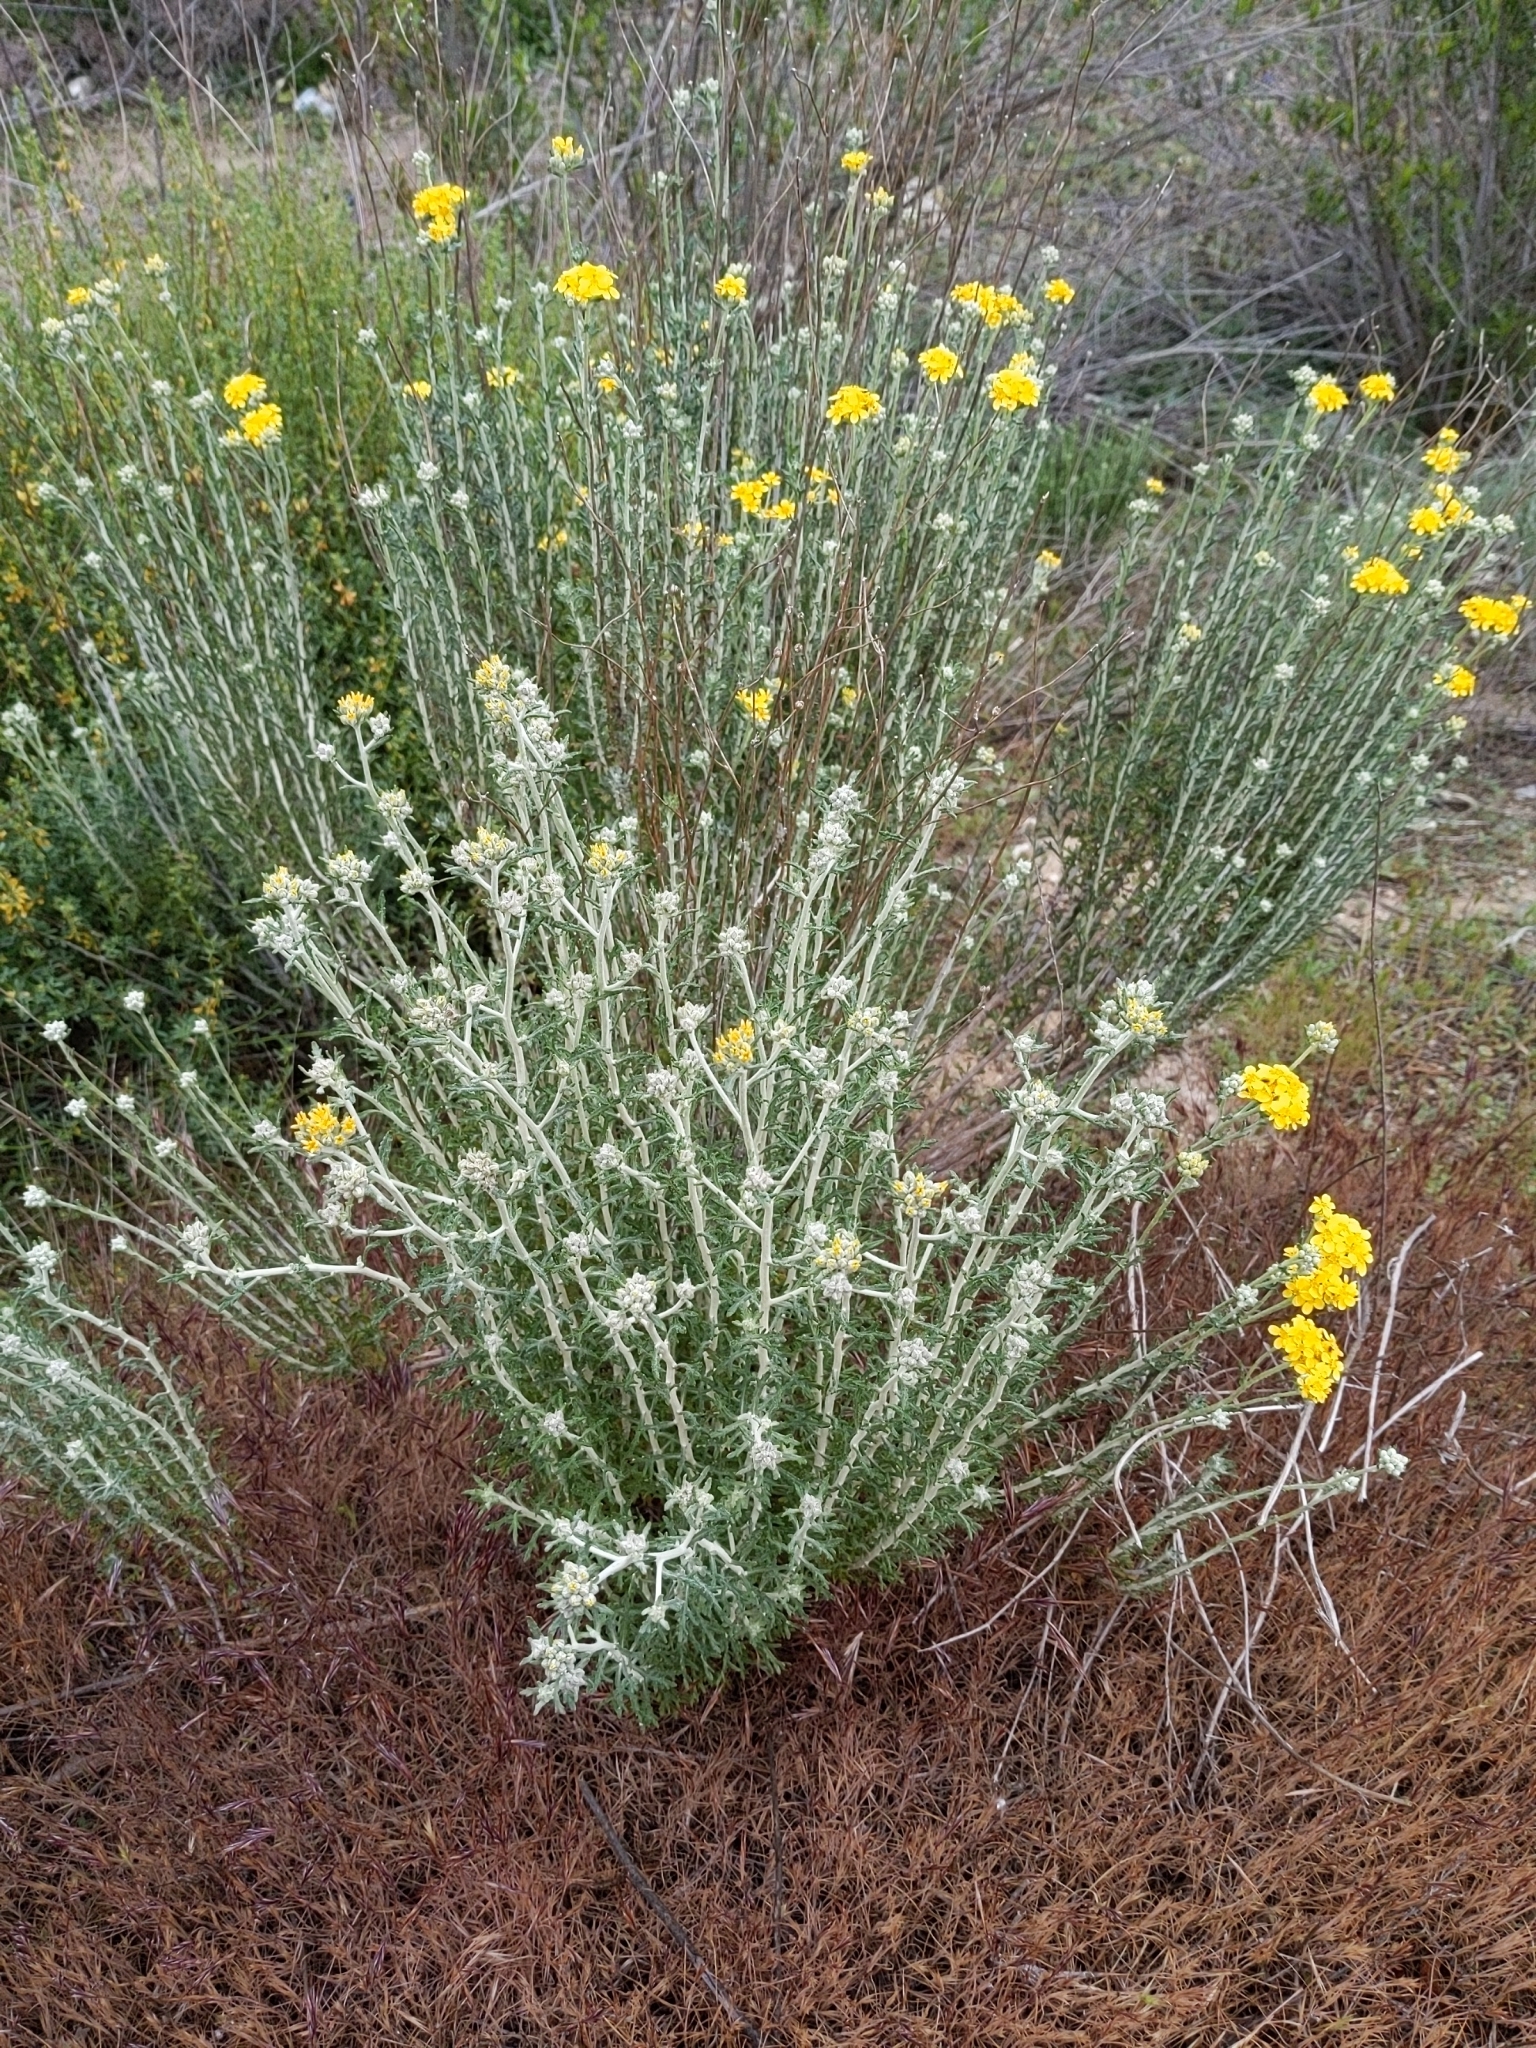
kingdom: Plantae
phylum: Tracheophyta
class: Magnoliopsida
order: Asterales
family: Asteraceae
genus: Eriophyllum
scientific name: Eriophyllum confertiflorum
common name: Golden-yarrow
